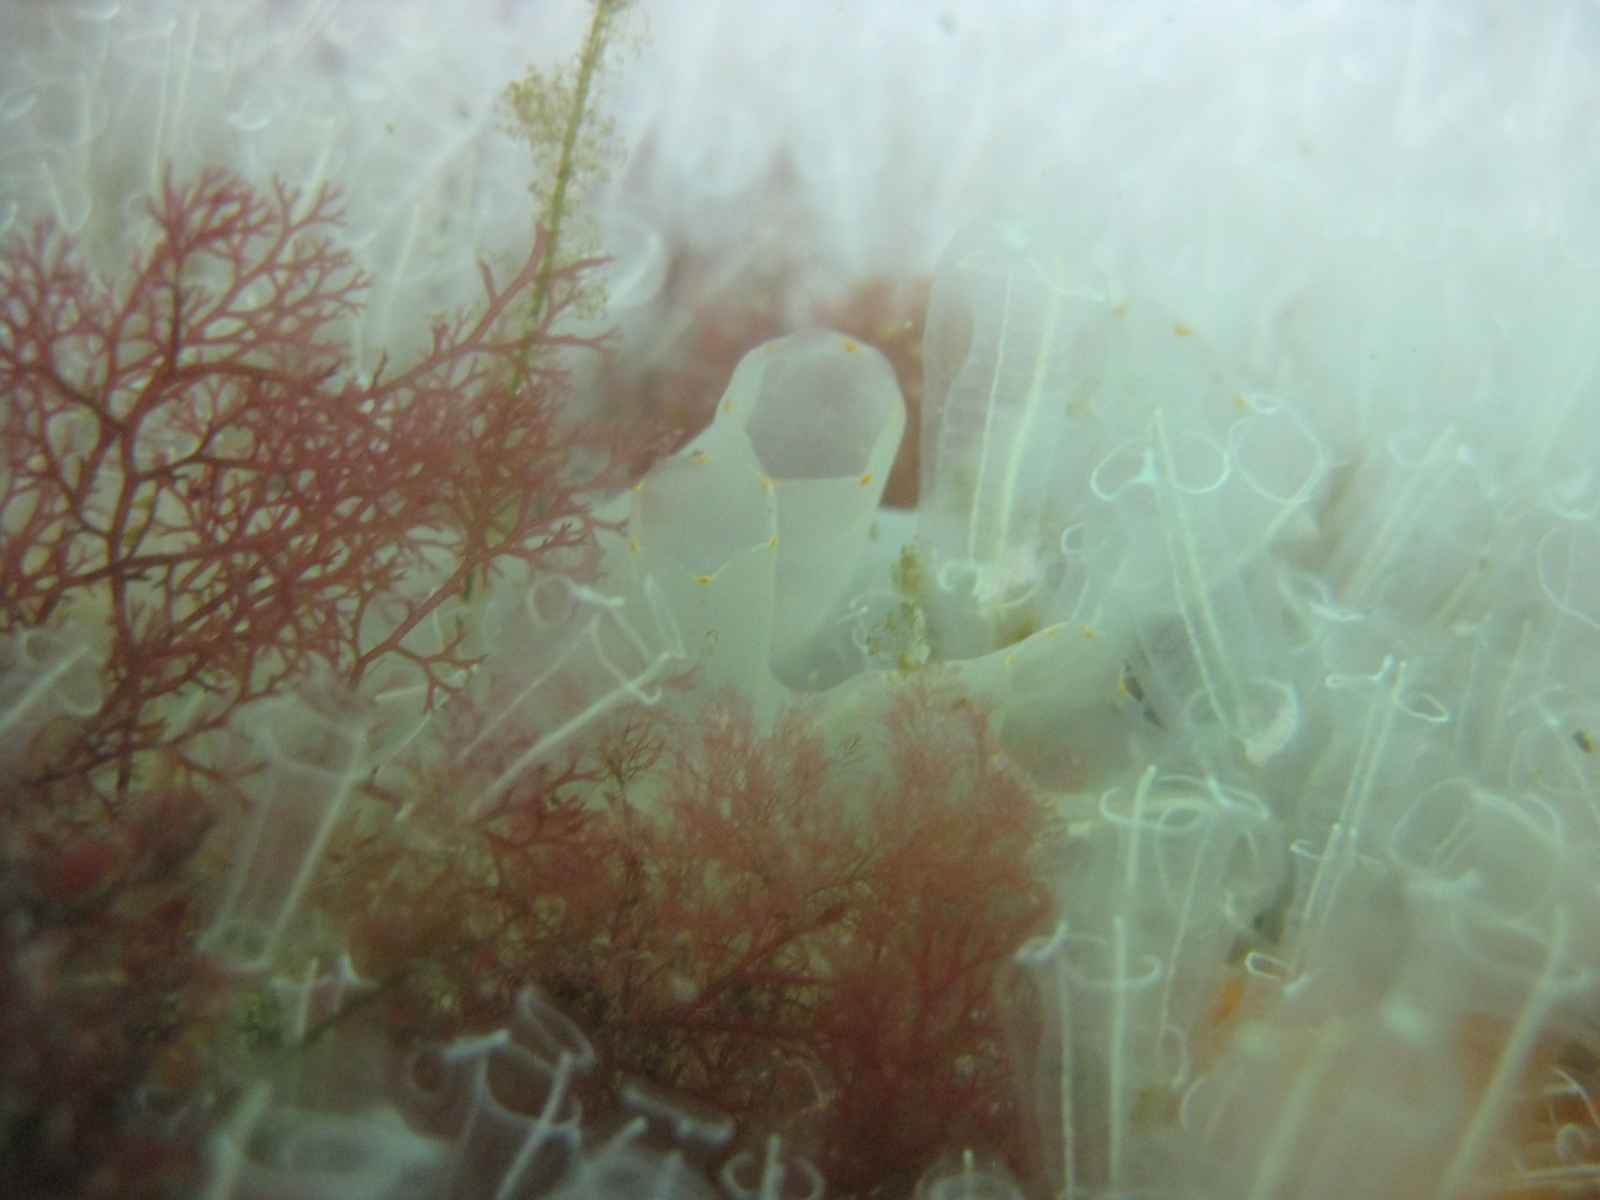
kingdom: Animalia
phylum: Chordata
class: Ascidiacea
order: Phlebobranchia
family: Cionidae
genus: Ciona
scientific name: Ciona savignyi
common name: Tunicate
